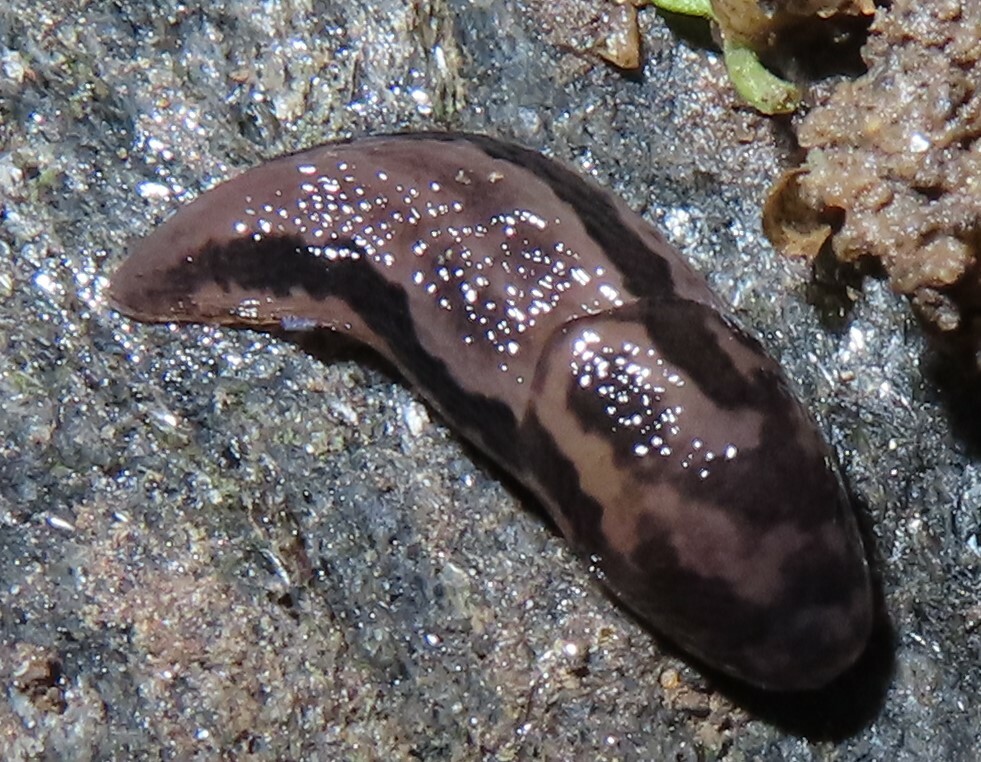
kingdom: Animalia
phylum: Mollusca
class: Gastropoda
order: Stylommatophora
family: Limacidae
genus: Limax
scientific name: Limax maximus
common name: Great grey slug
